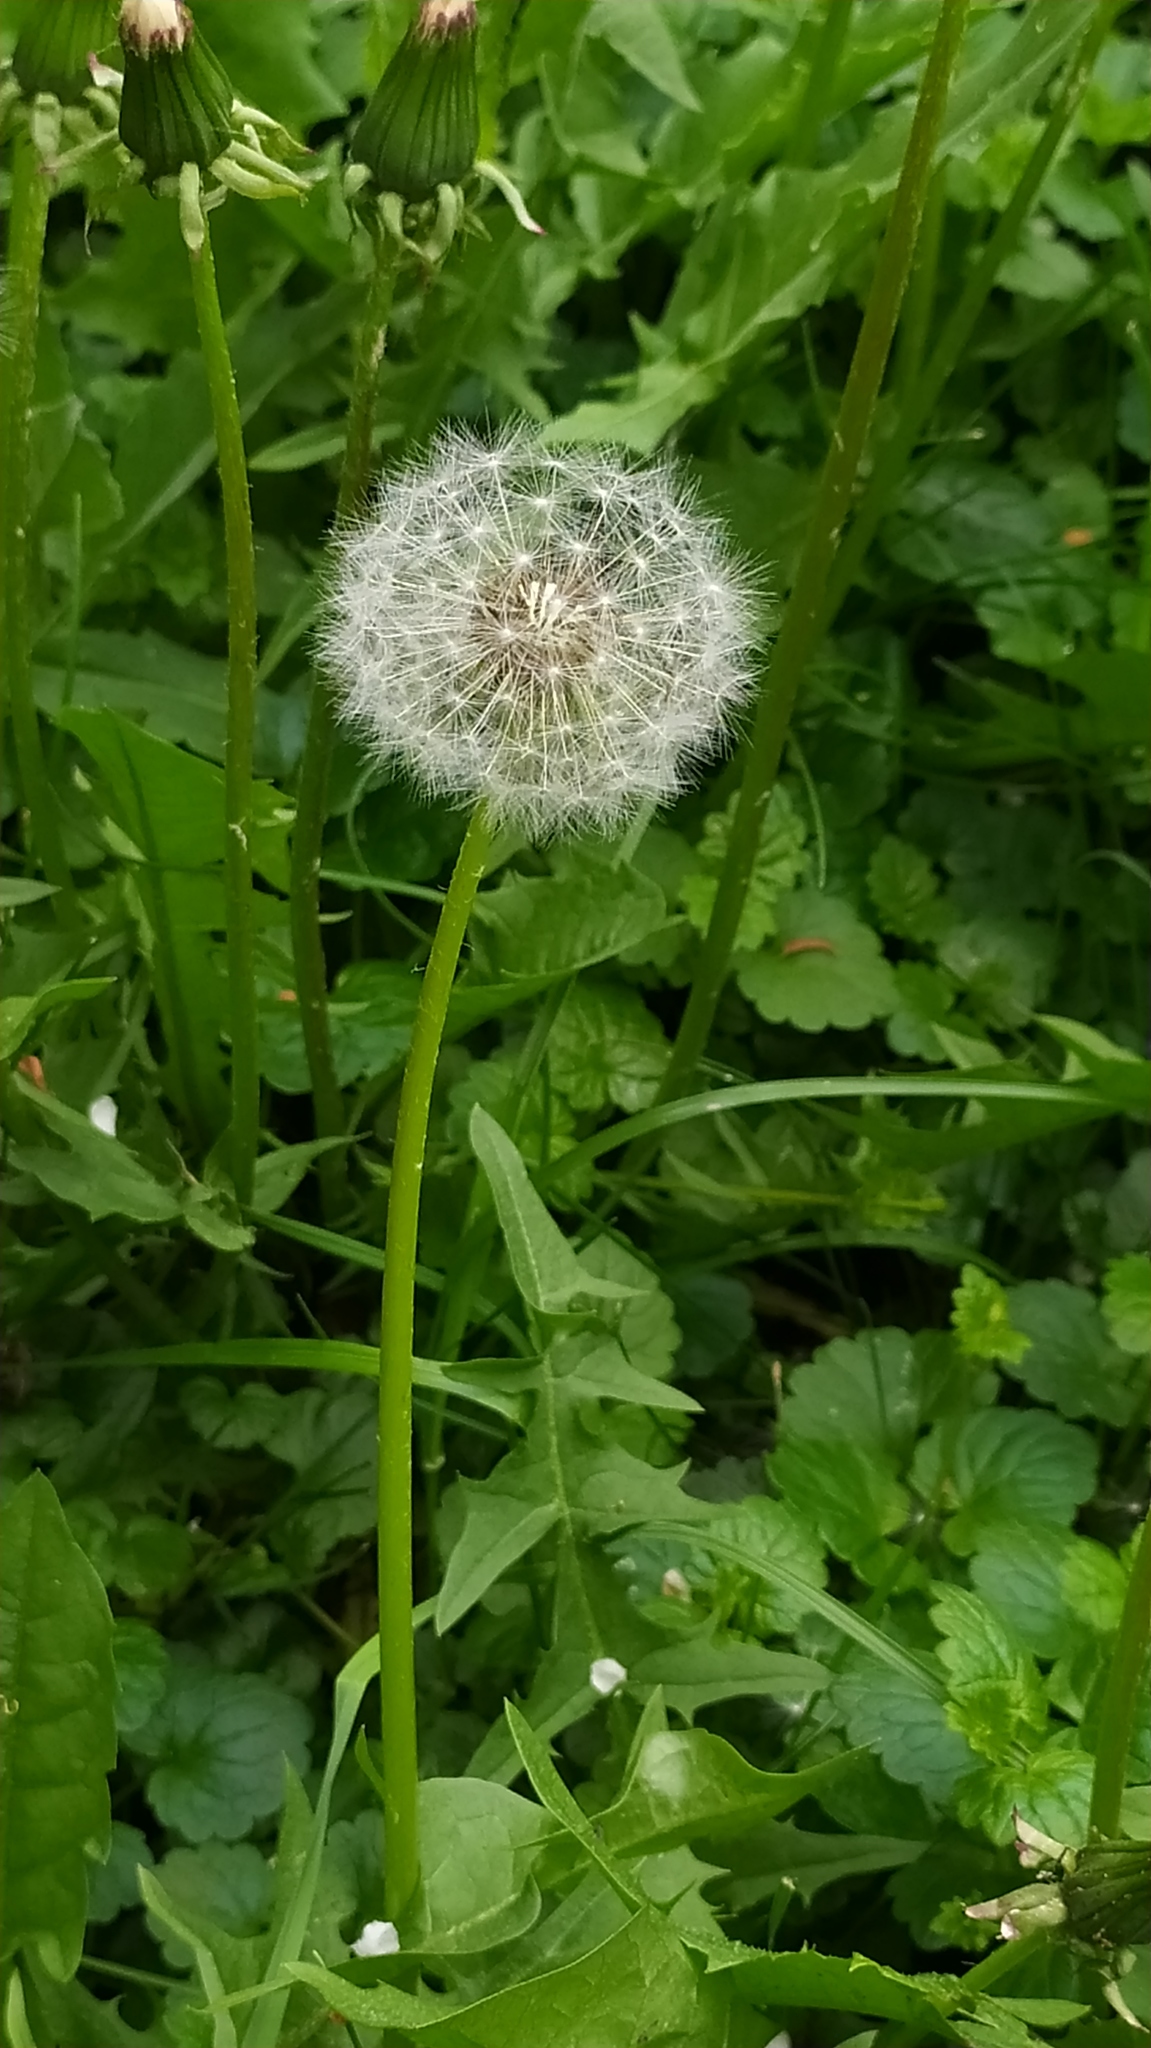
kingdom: Plantae
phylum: Tracheophyta
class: Magnoliopsida
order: Asterales
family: Asteraceae
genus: Taraxacum
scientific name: Taraxacum officinale
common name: Common dandelion
